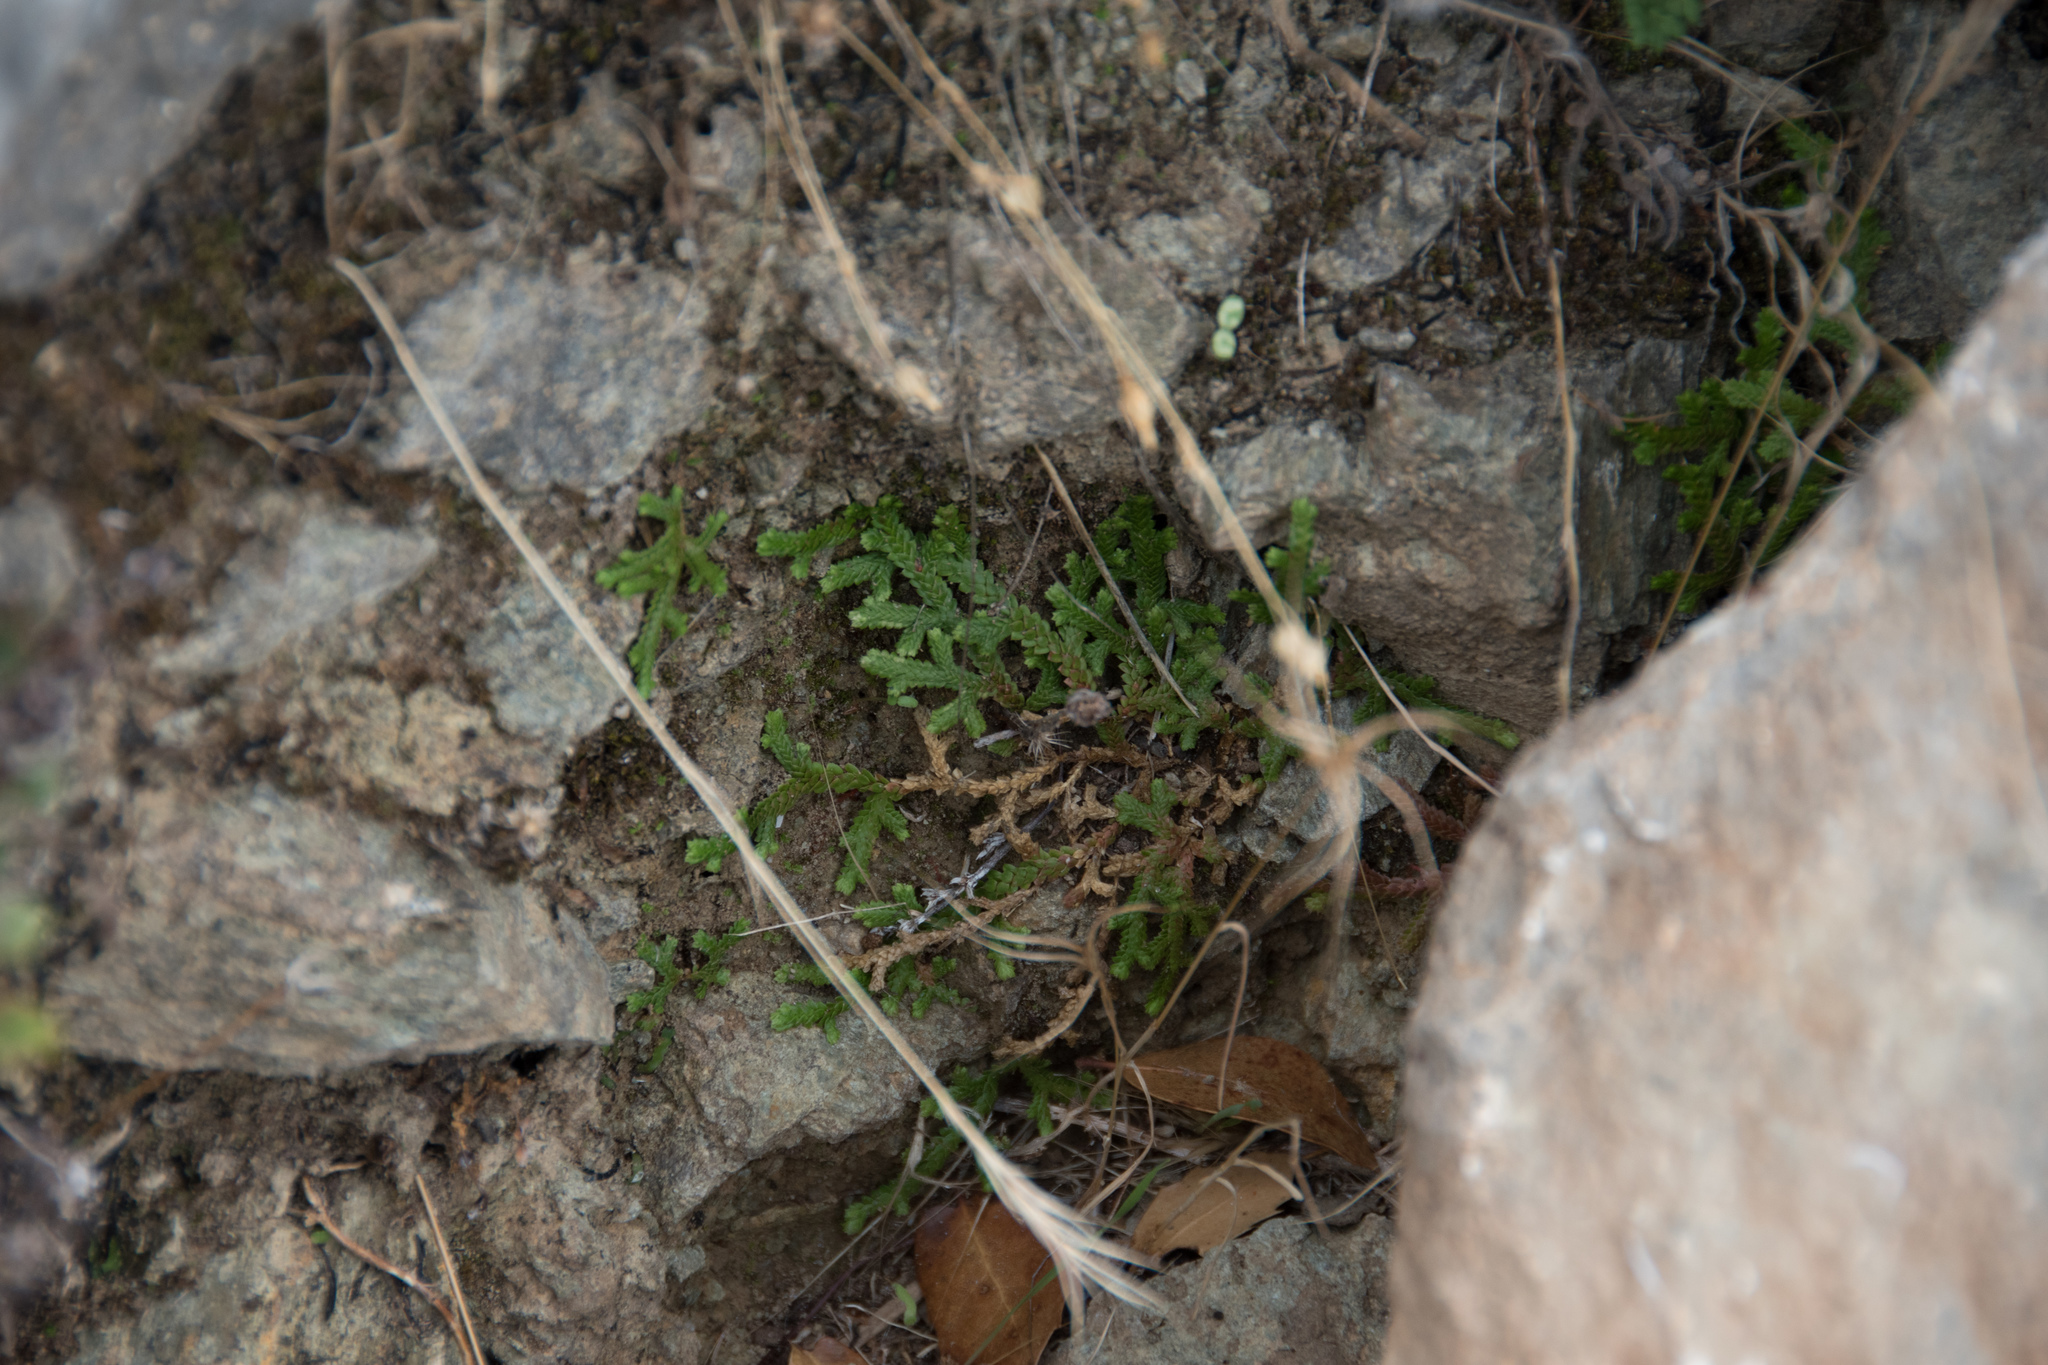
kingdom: Plantae
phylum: Tracheophyta
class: Lycopodiopsida
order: Selaginellales
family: Selaginellaceae
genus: Selaginella
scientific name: Selaginella denticulata
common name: Toothed-leaved clubmoss
